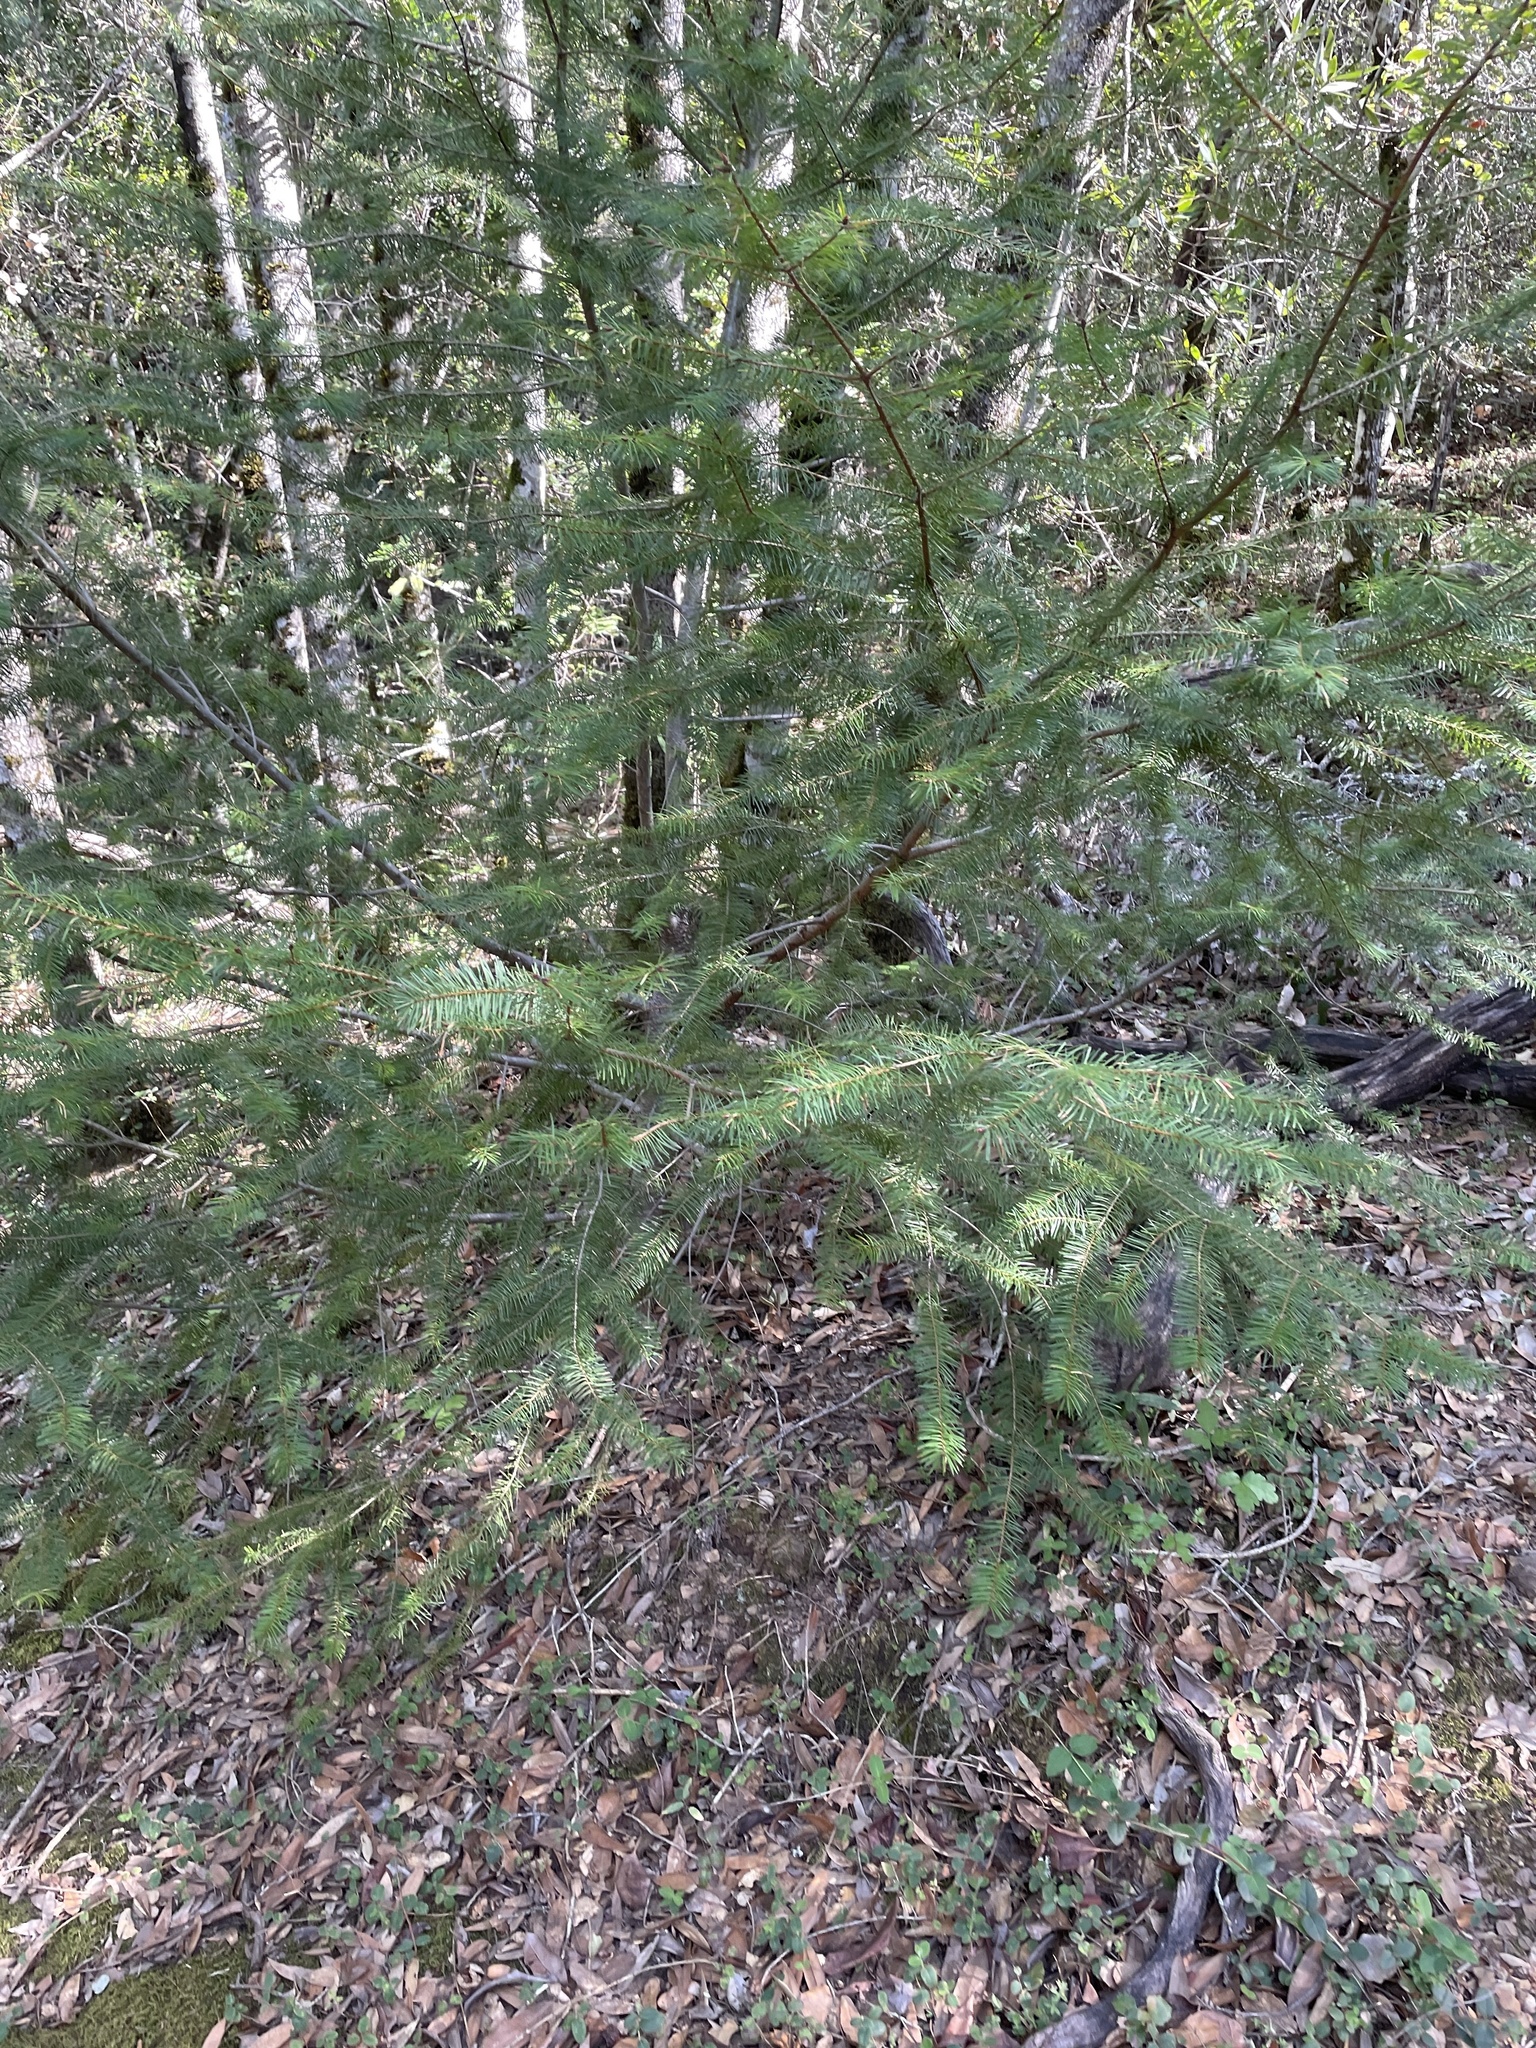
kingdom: Plantae
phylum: Tracheophyta
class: Pinopsida
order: Pinales
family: Pinaceae
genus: Pseudotsuga
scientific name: Pseudotsuga menziesii
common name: Douglas fir
